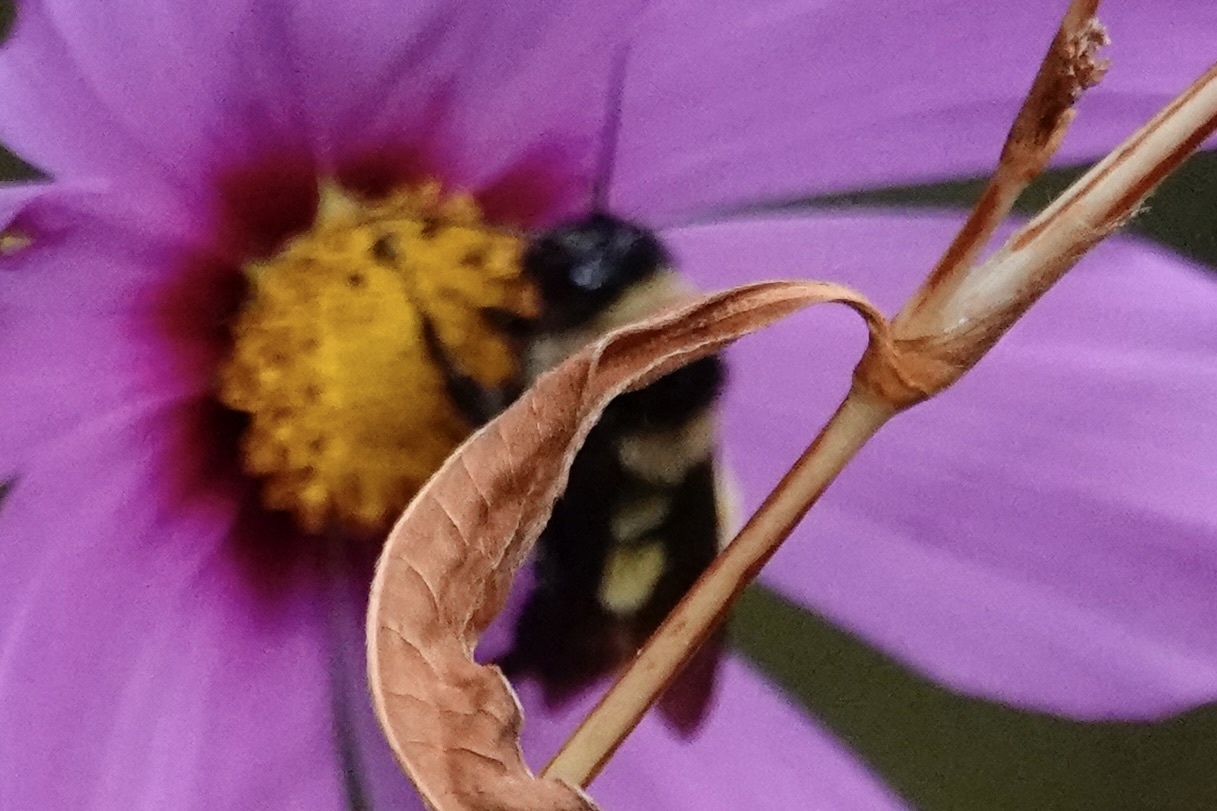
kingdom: Animalia
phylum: Arthropoda
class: Insecta
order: Hymenoptera
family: Apidae
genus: Bombus
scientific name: Bombus pensylvanicus
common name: Bumble bee
